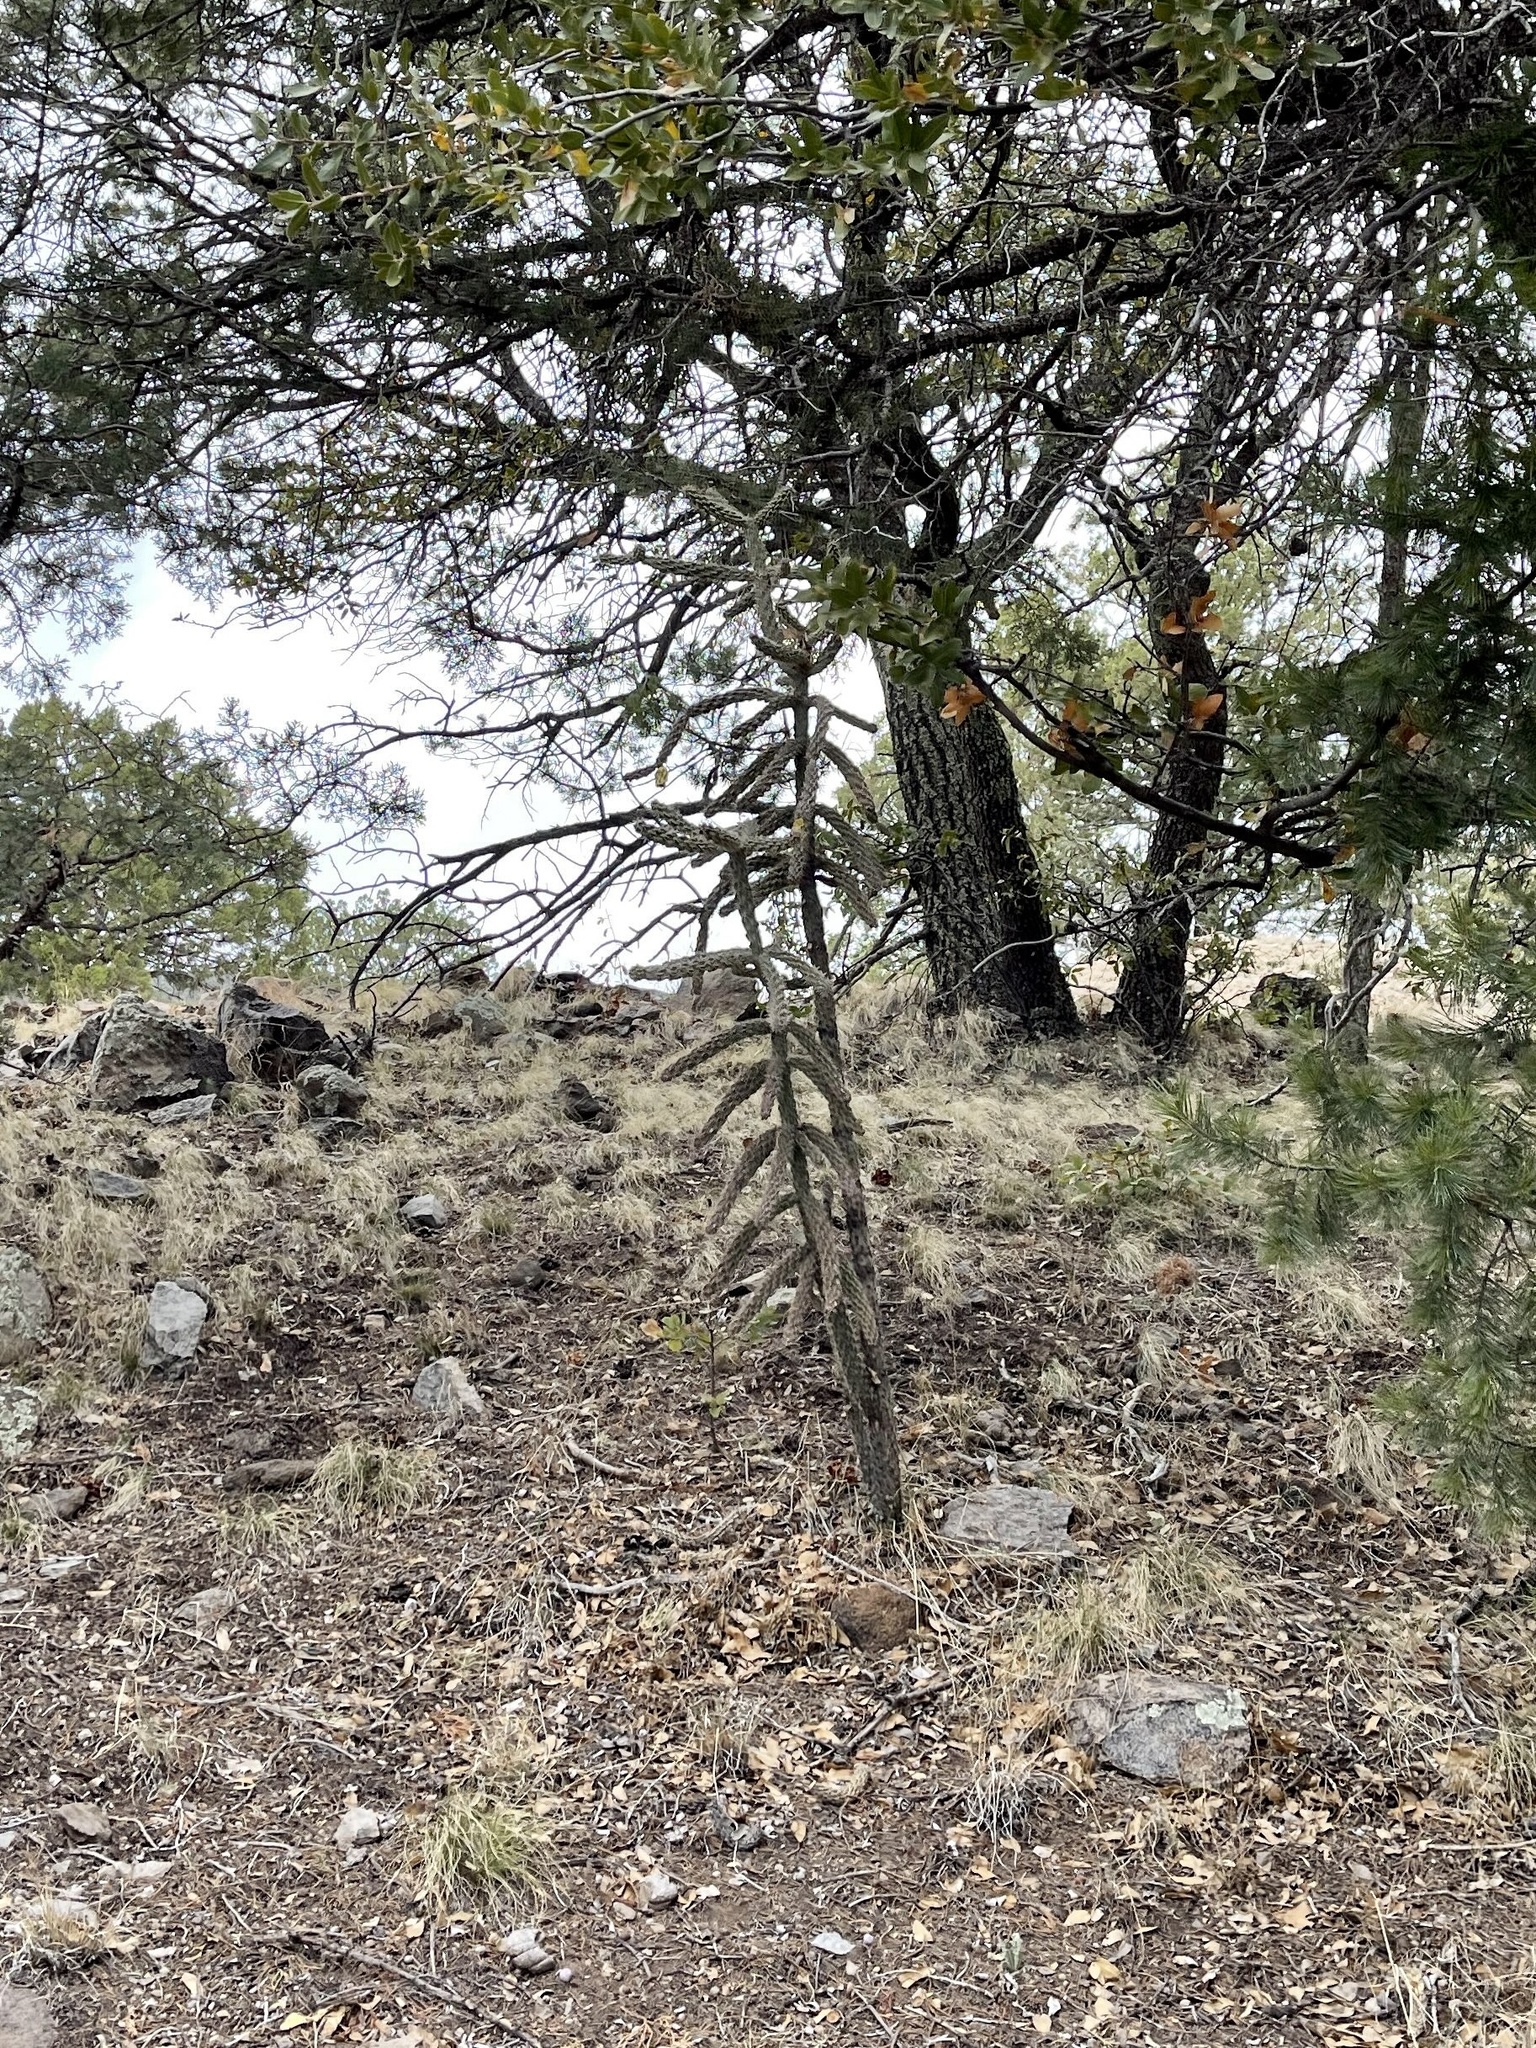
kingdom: Plantae
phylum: Tracheophyta
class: Magnoliopsida
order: Caryophyllales
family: Cactaceae
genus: Cylindropuntia
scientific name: Cylindropuntia imbricata
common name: Candelabrum cactus
